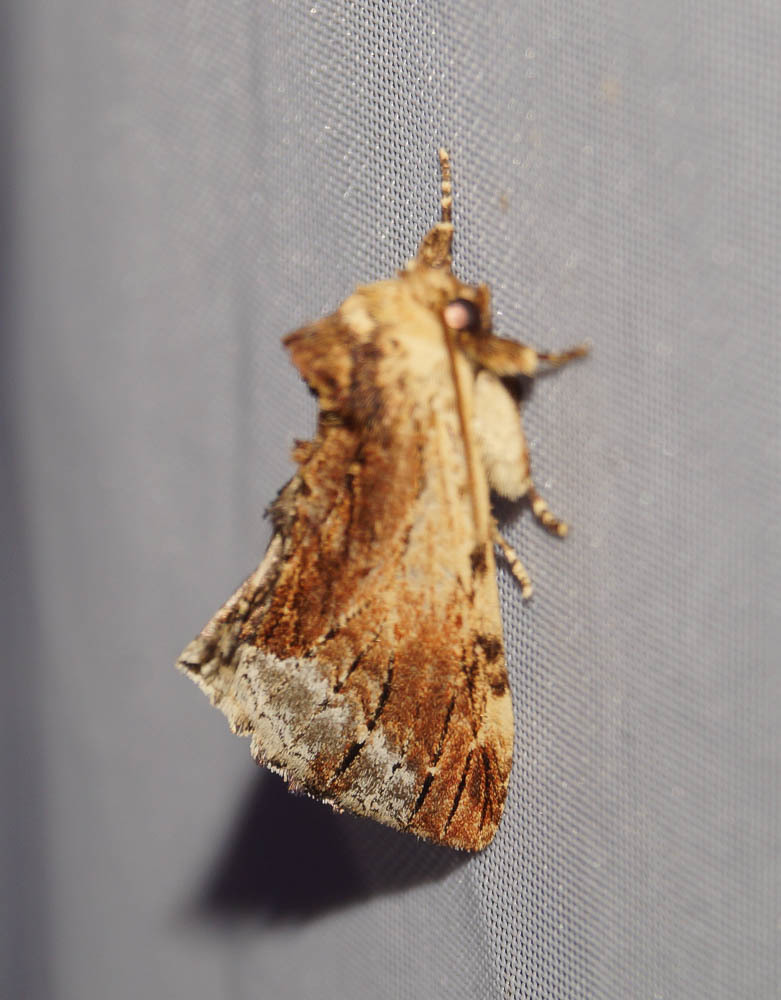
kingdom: Animalia
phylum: Arthropoda
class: Insecta
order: Lepidoptera
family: Notodontidae
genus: Ptilodon
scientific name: Ptilodon cucullina
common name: Maple prominent
